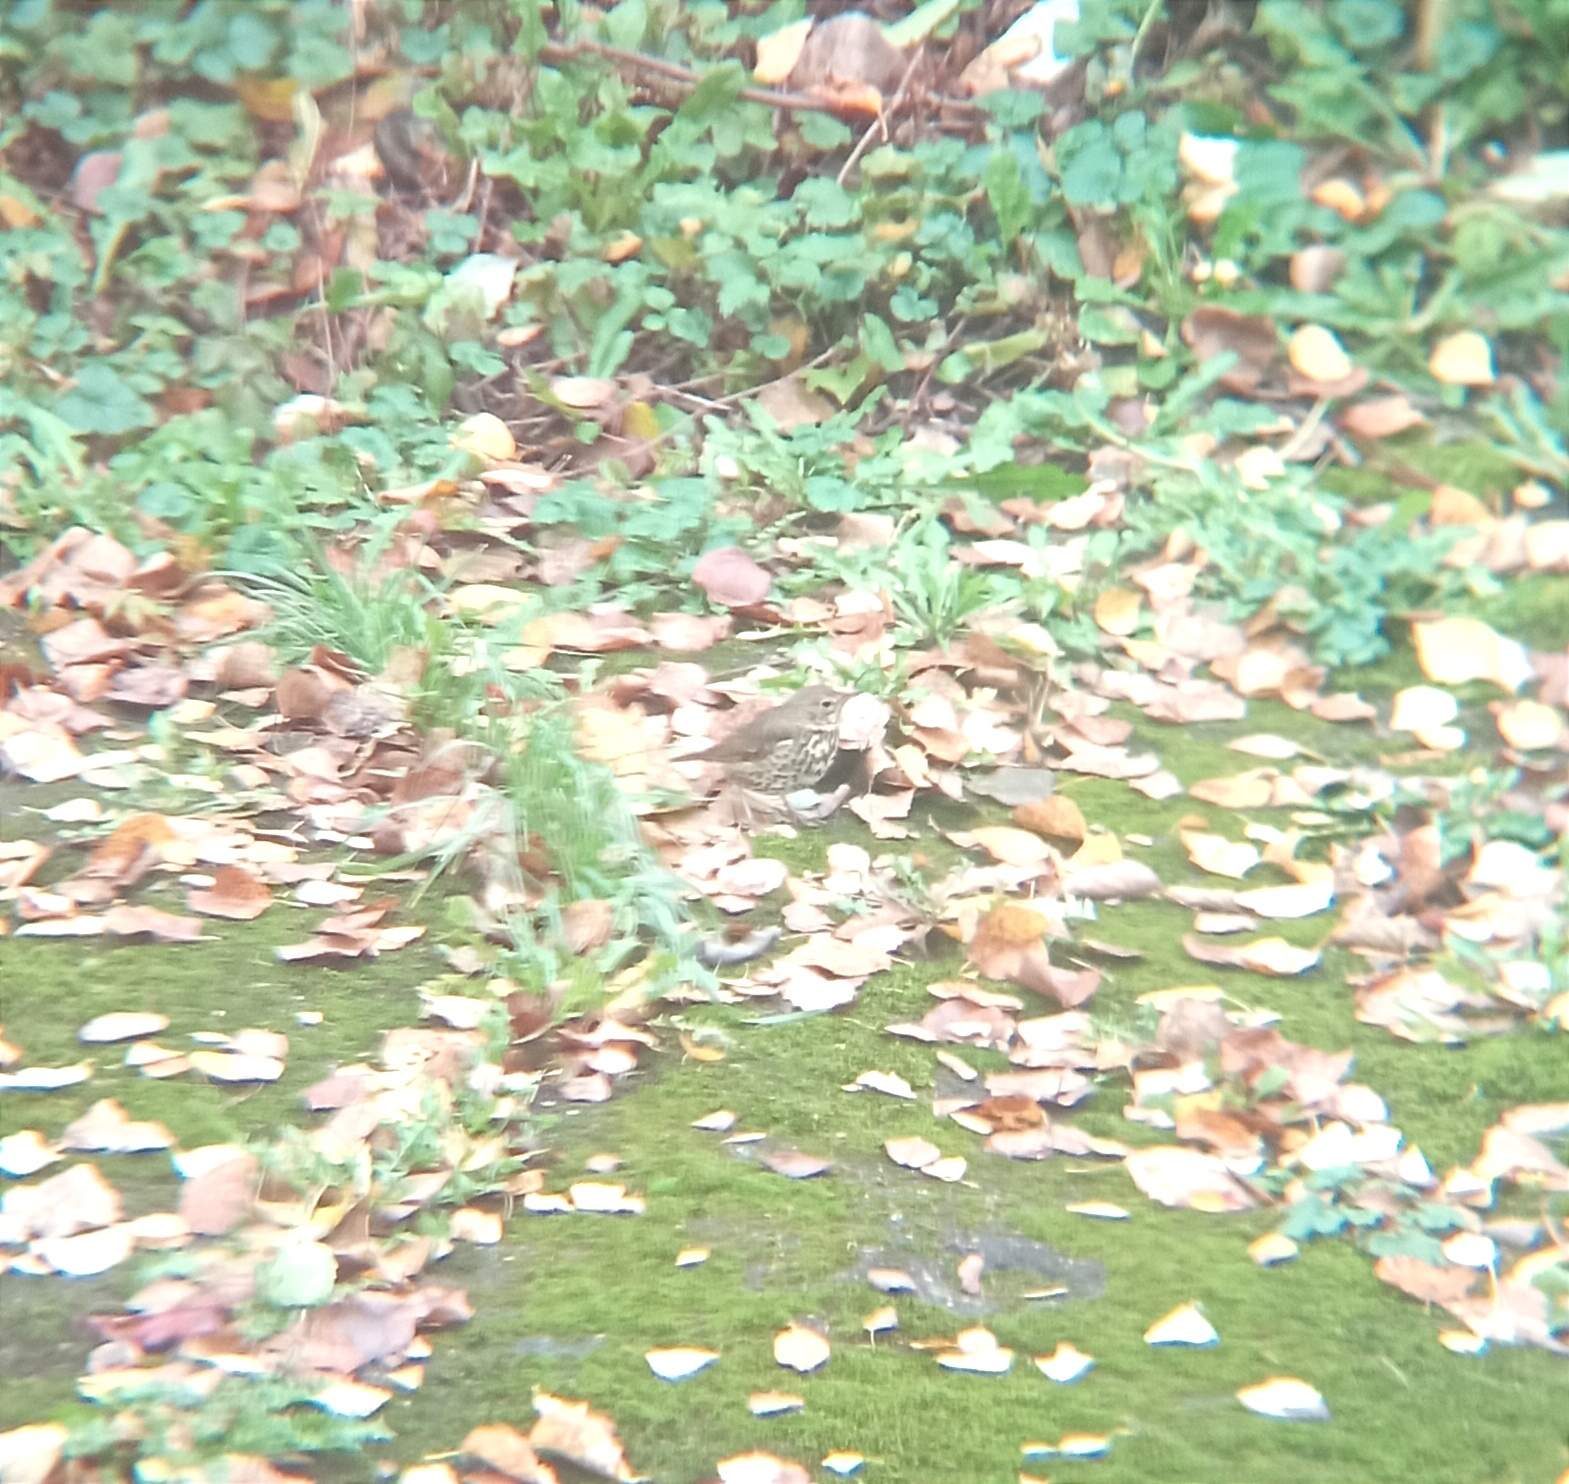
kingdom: Animalia
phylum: Chordata
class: Aves
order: Passeriformes
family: Turdidae
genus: Turdus
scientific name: Turdus philomelos
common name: Song thrush
